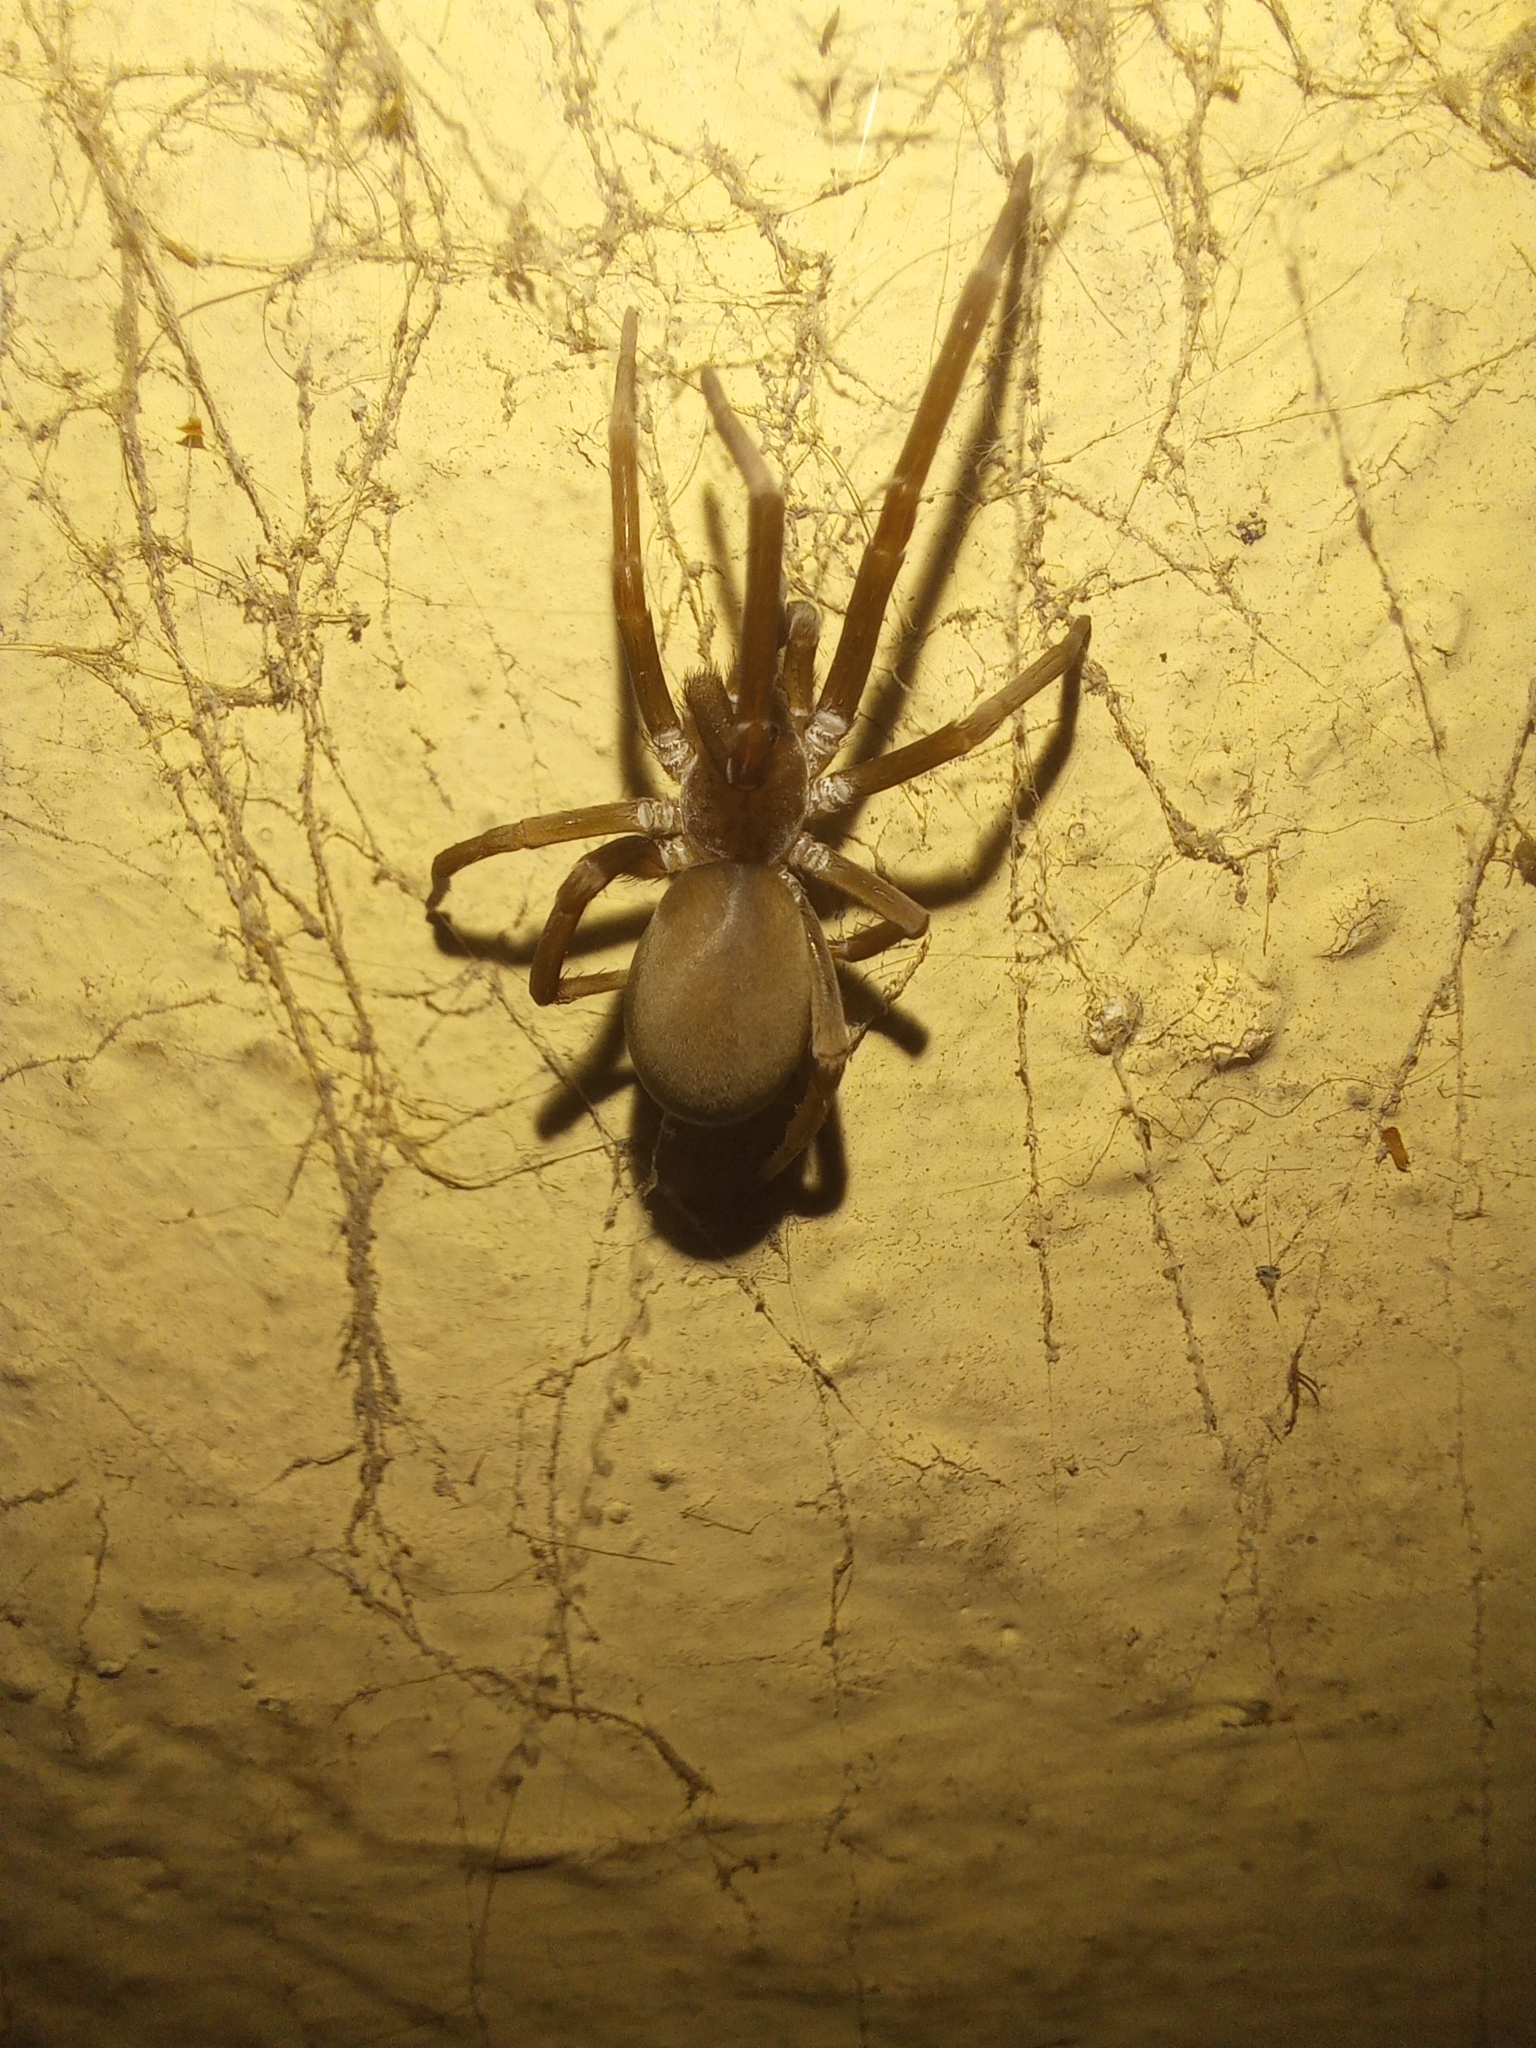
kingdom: Animalia
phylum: Arthropoda
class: Arachnida
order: Araneae
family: Filistatidae
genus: Kukulcania
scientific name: Kukulcania hibernalis
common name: Crevice weaver
